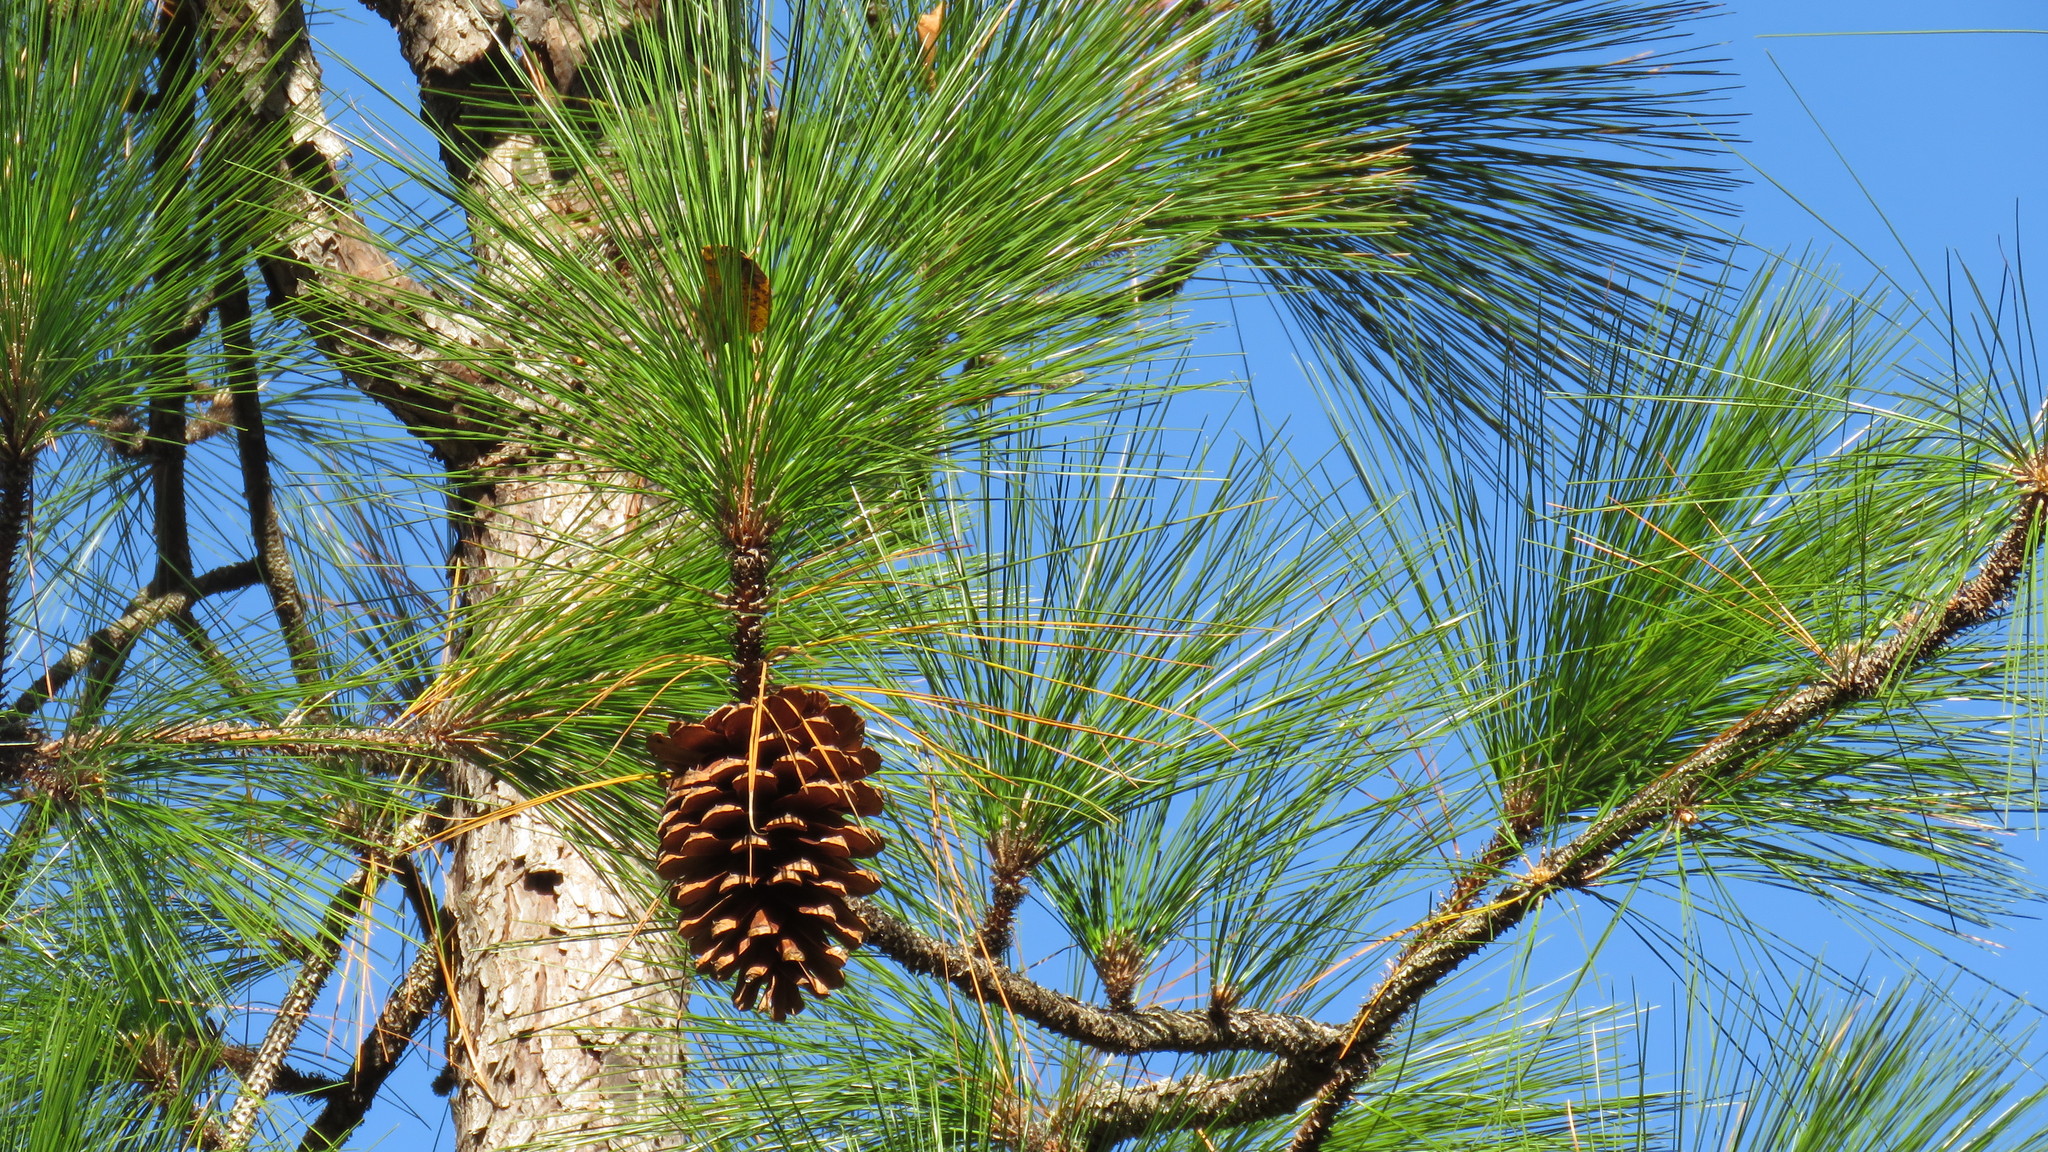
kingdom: Plantae
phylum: Tracheophyta
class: Pinopsida
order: Pinales
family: Pinaceae
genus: Pinus
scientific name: Pinus taeda
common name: Loblolly pine
